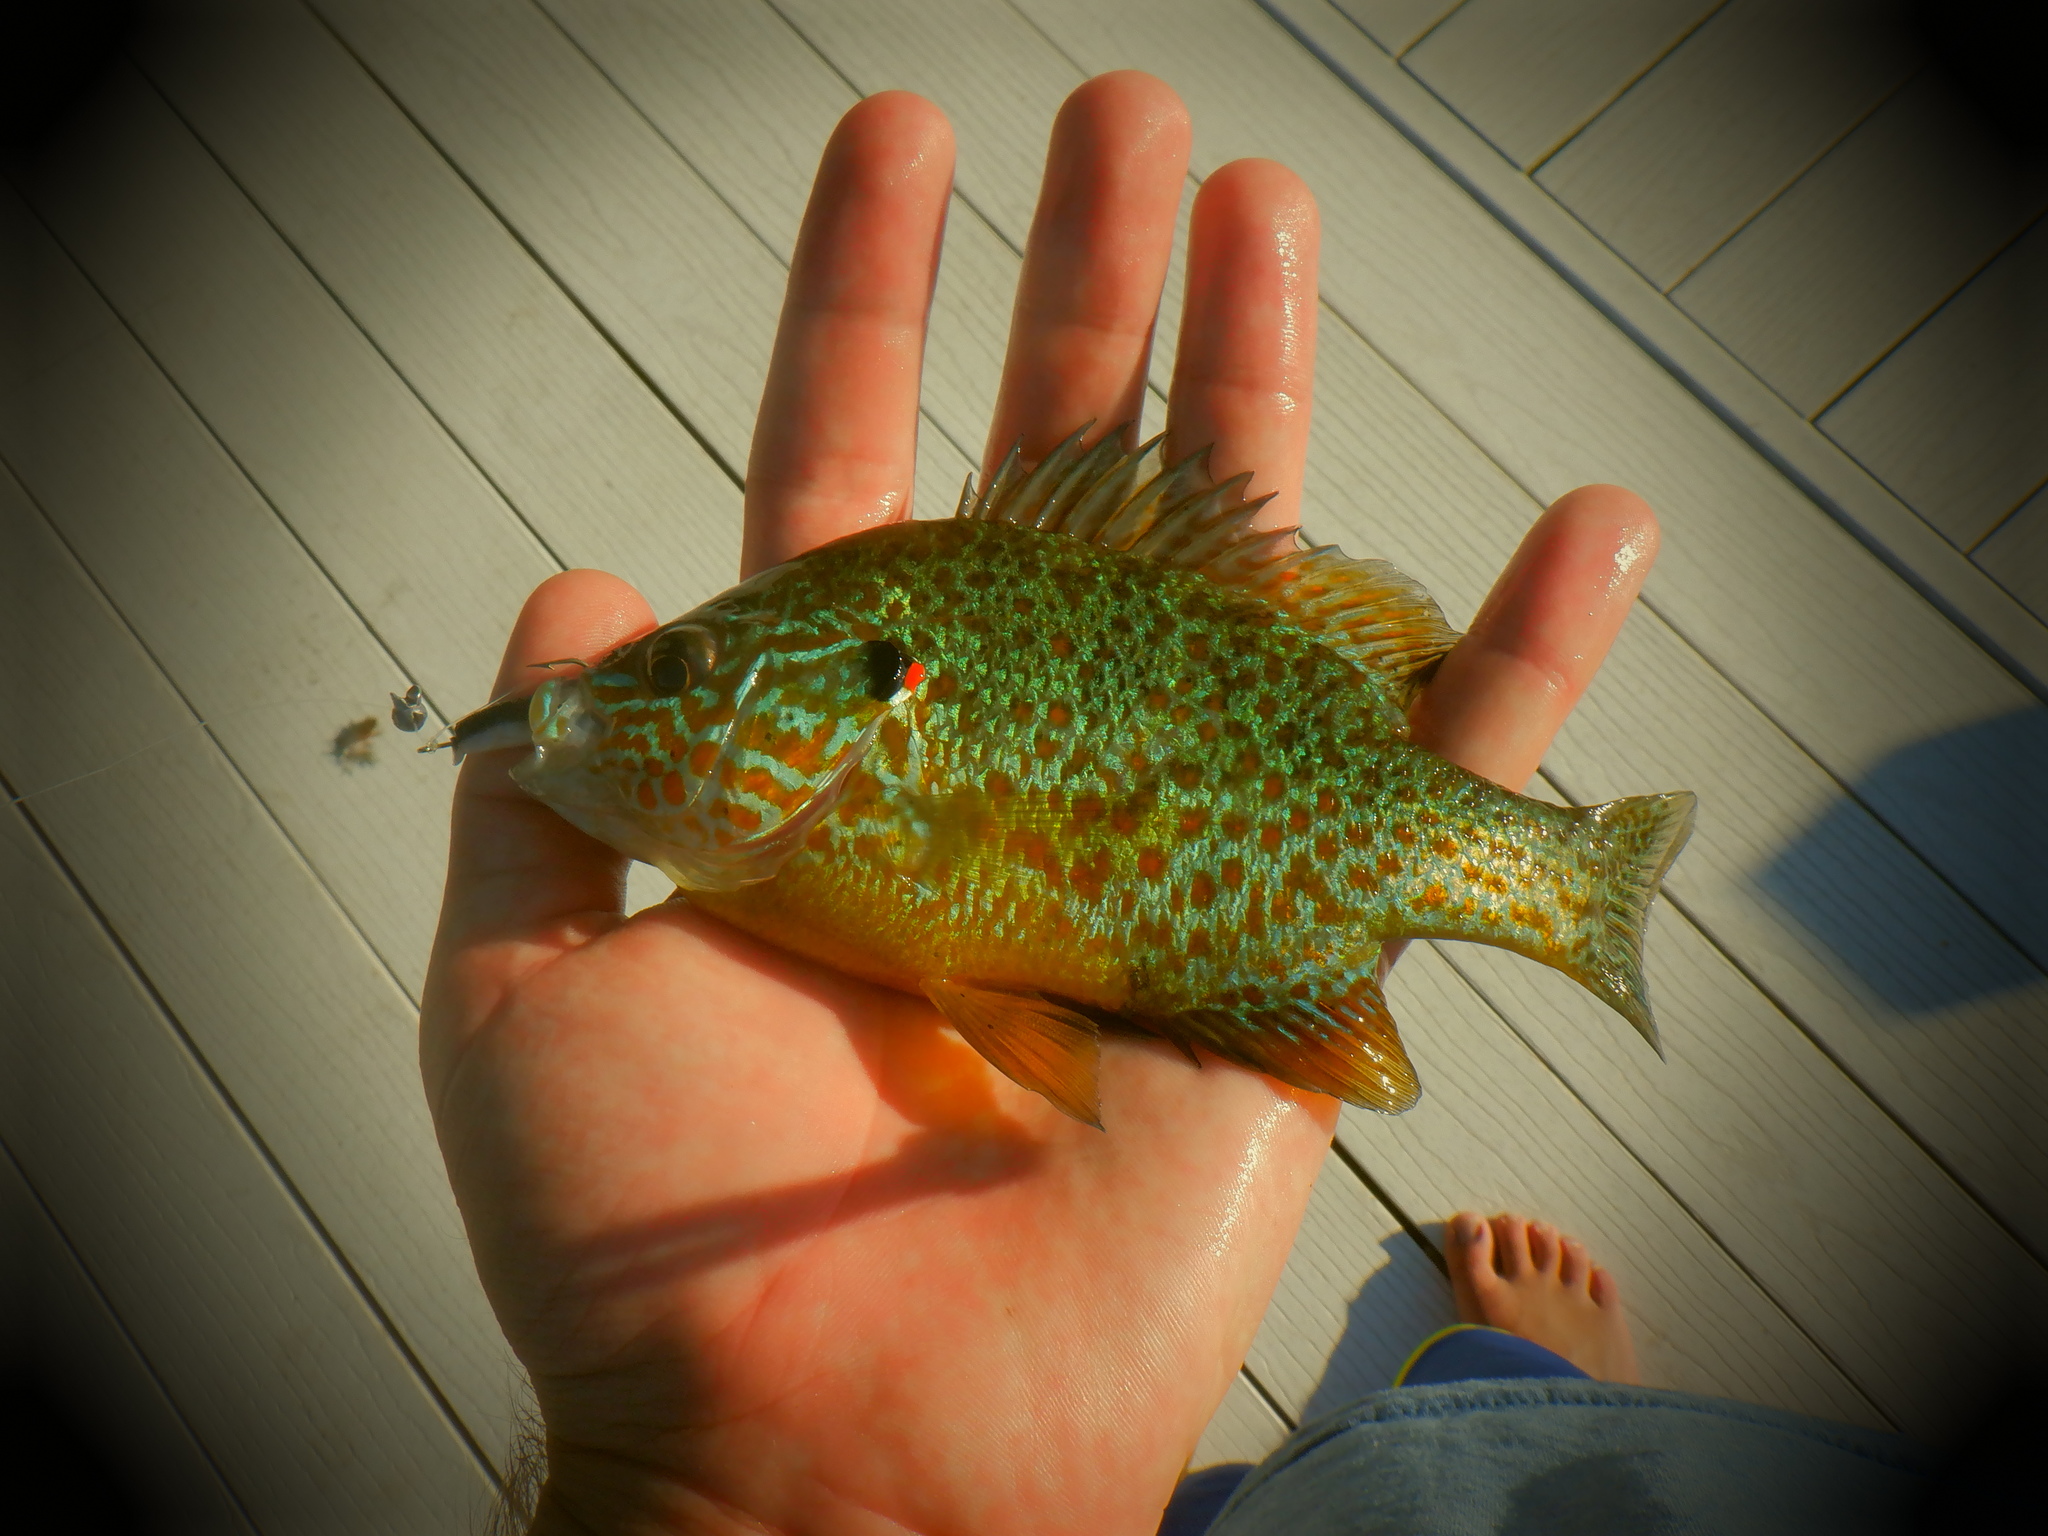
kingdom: Animalia
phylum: Chordata
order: Perciformes
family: Centrarchidae
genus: Lepomis
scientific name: Lepomis gibbosus
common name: Pumpkinseed
